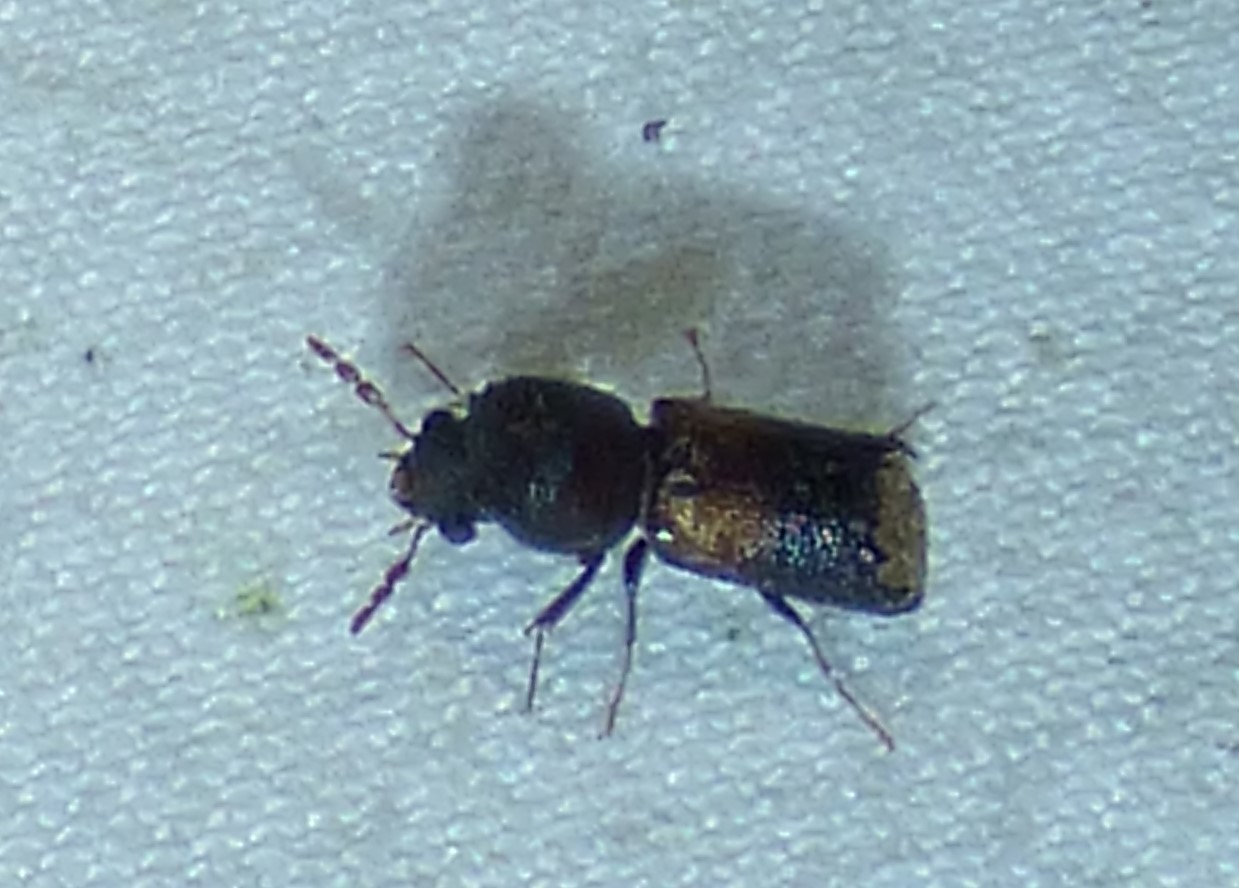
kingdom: Animalia
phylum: Arthropoda
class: Insecta
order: Coleoptera
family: Bostrichidae
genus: Xylobiops
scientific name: Xylobiops basilaris
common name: Red-shouldered bostrichid
